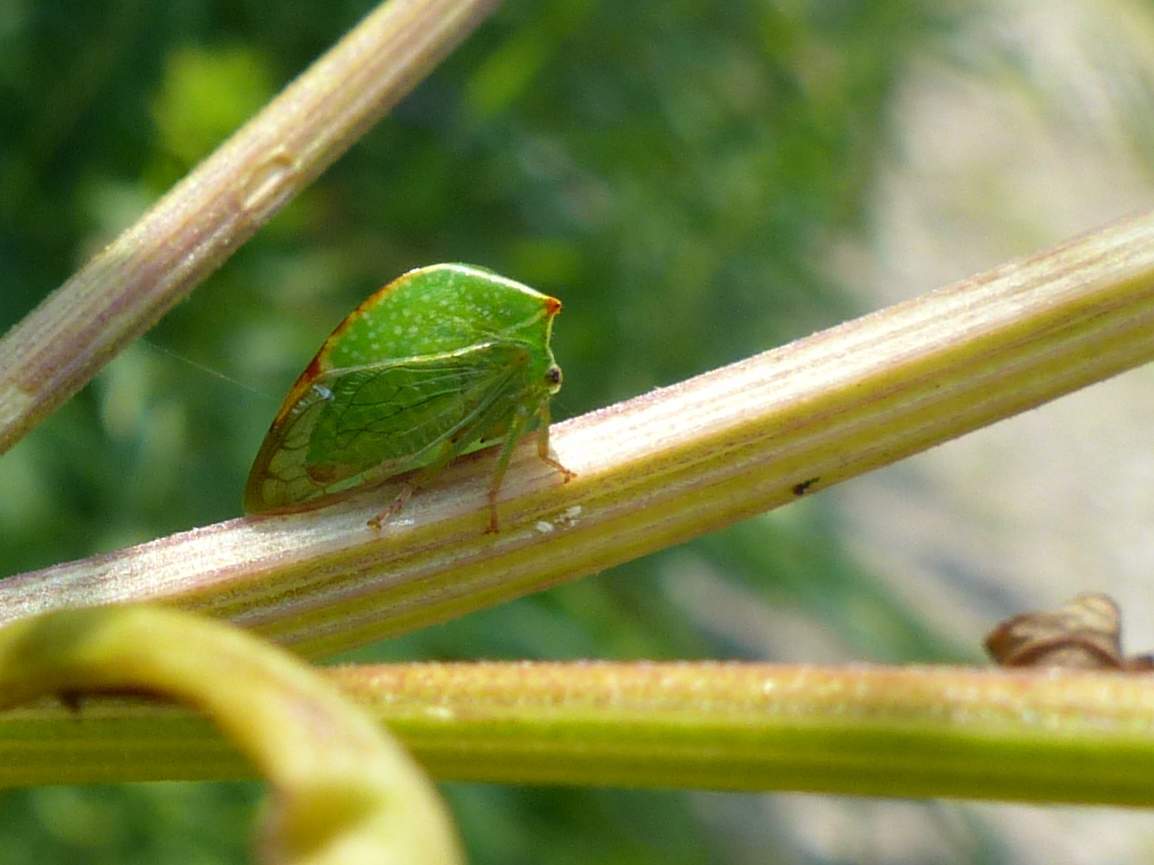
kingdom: Animalia
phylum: Arthropoda
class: Insecta
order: Hemiptera
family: Membracidae
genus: Stictocephala
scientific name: Stictocephala bisonia
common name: American buffalo treehopper
